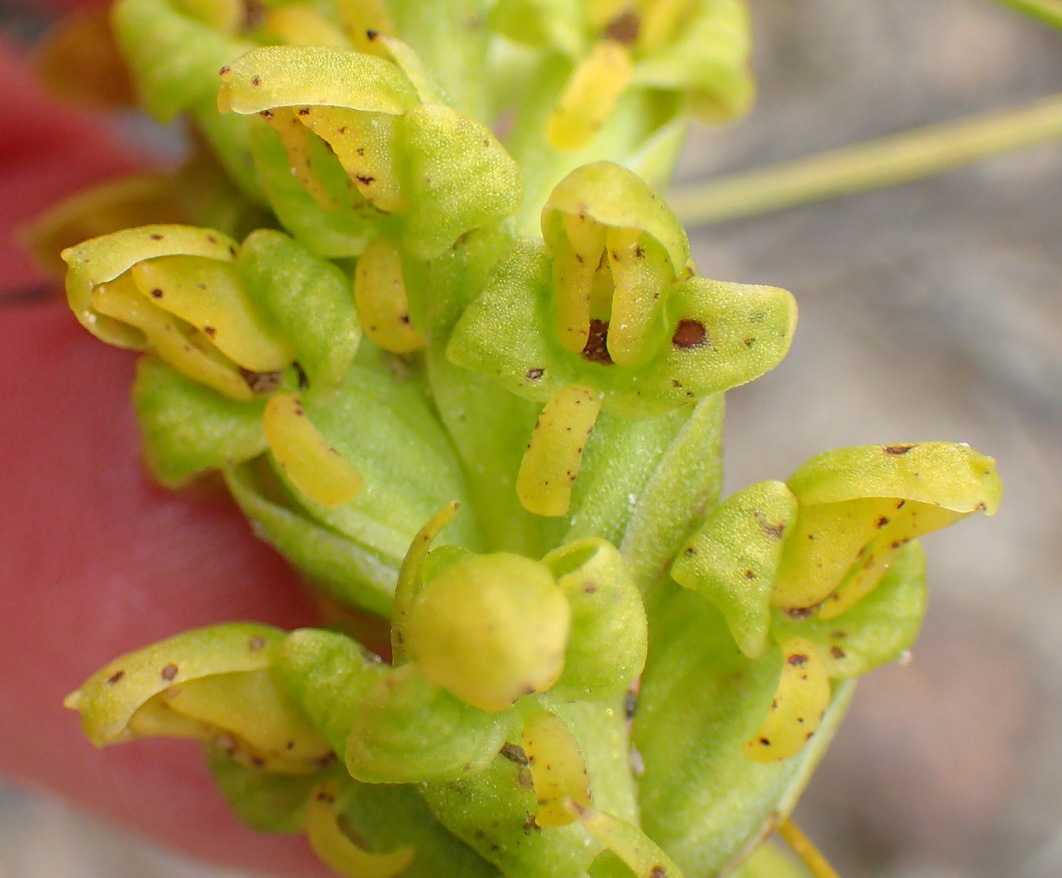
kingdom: Plantae
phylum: Tracheophyta
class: Liliopsida
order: Asparagales
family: Orchidaceae
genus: Disa
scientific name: Disa cylindrica
